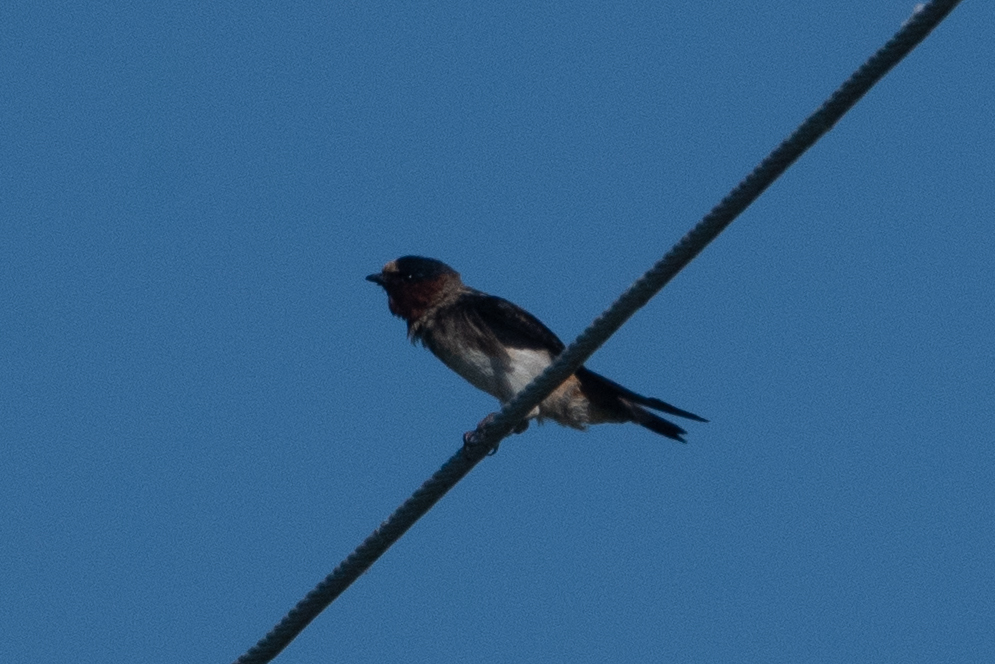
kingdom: Animalia
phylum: Chordata
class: Aves
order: Passeriformes
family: Hirundinidae
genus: Petrochelidon
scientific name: Petrochelidon pyrrhonota
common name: American cliff swallow
